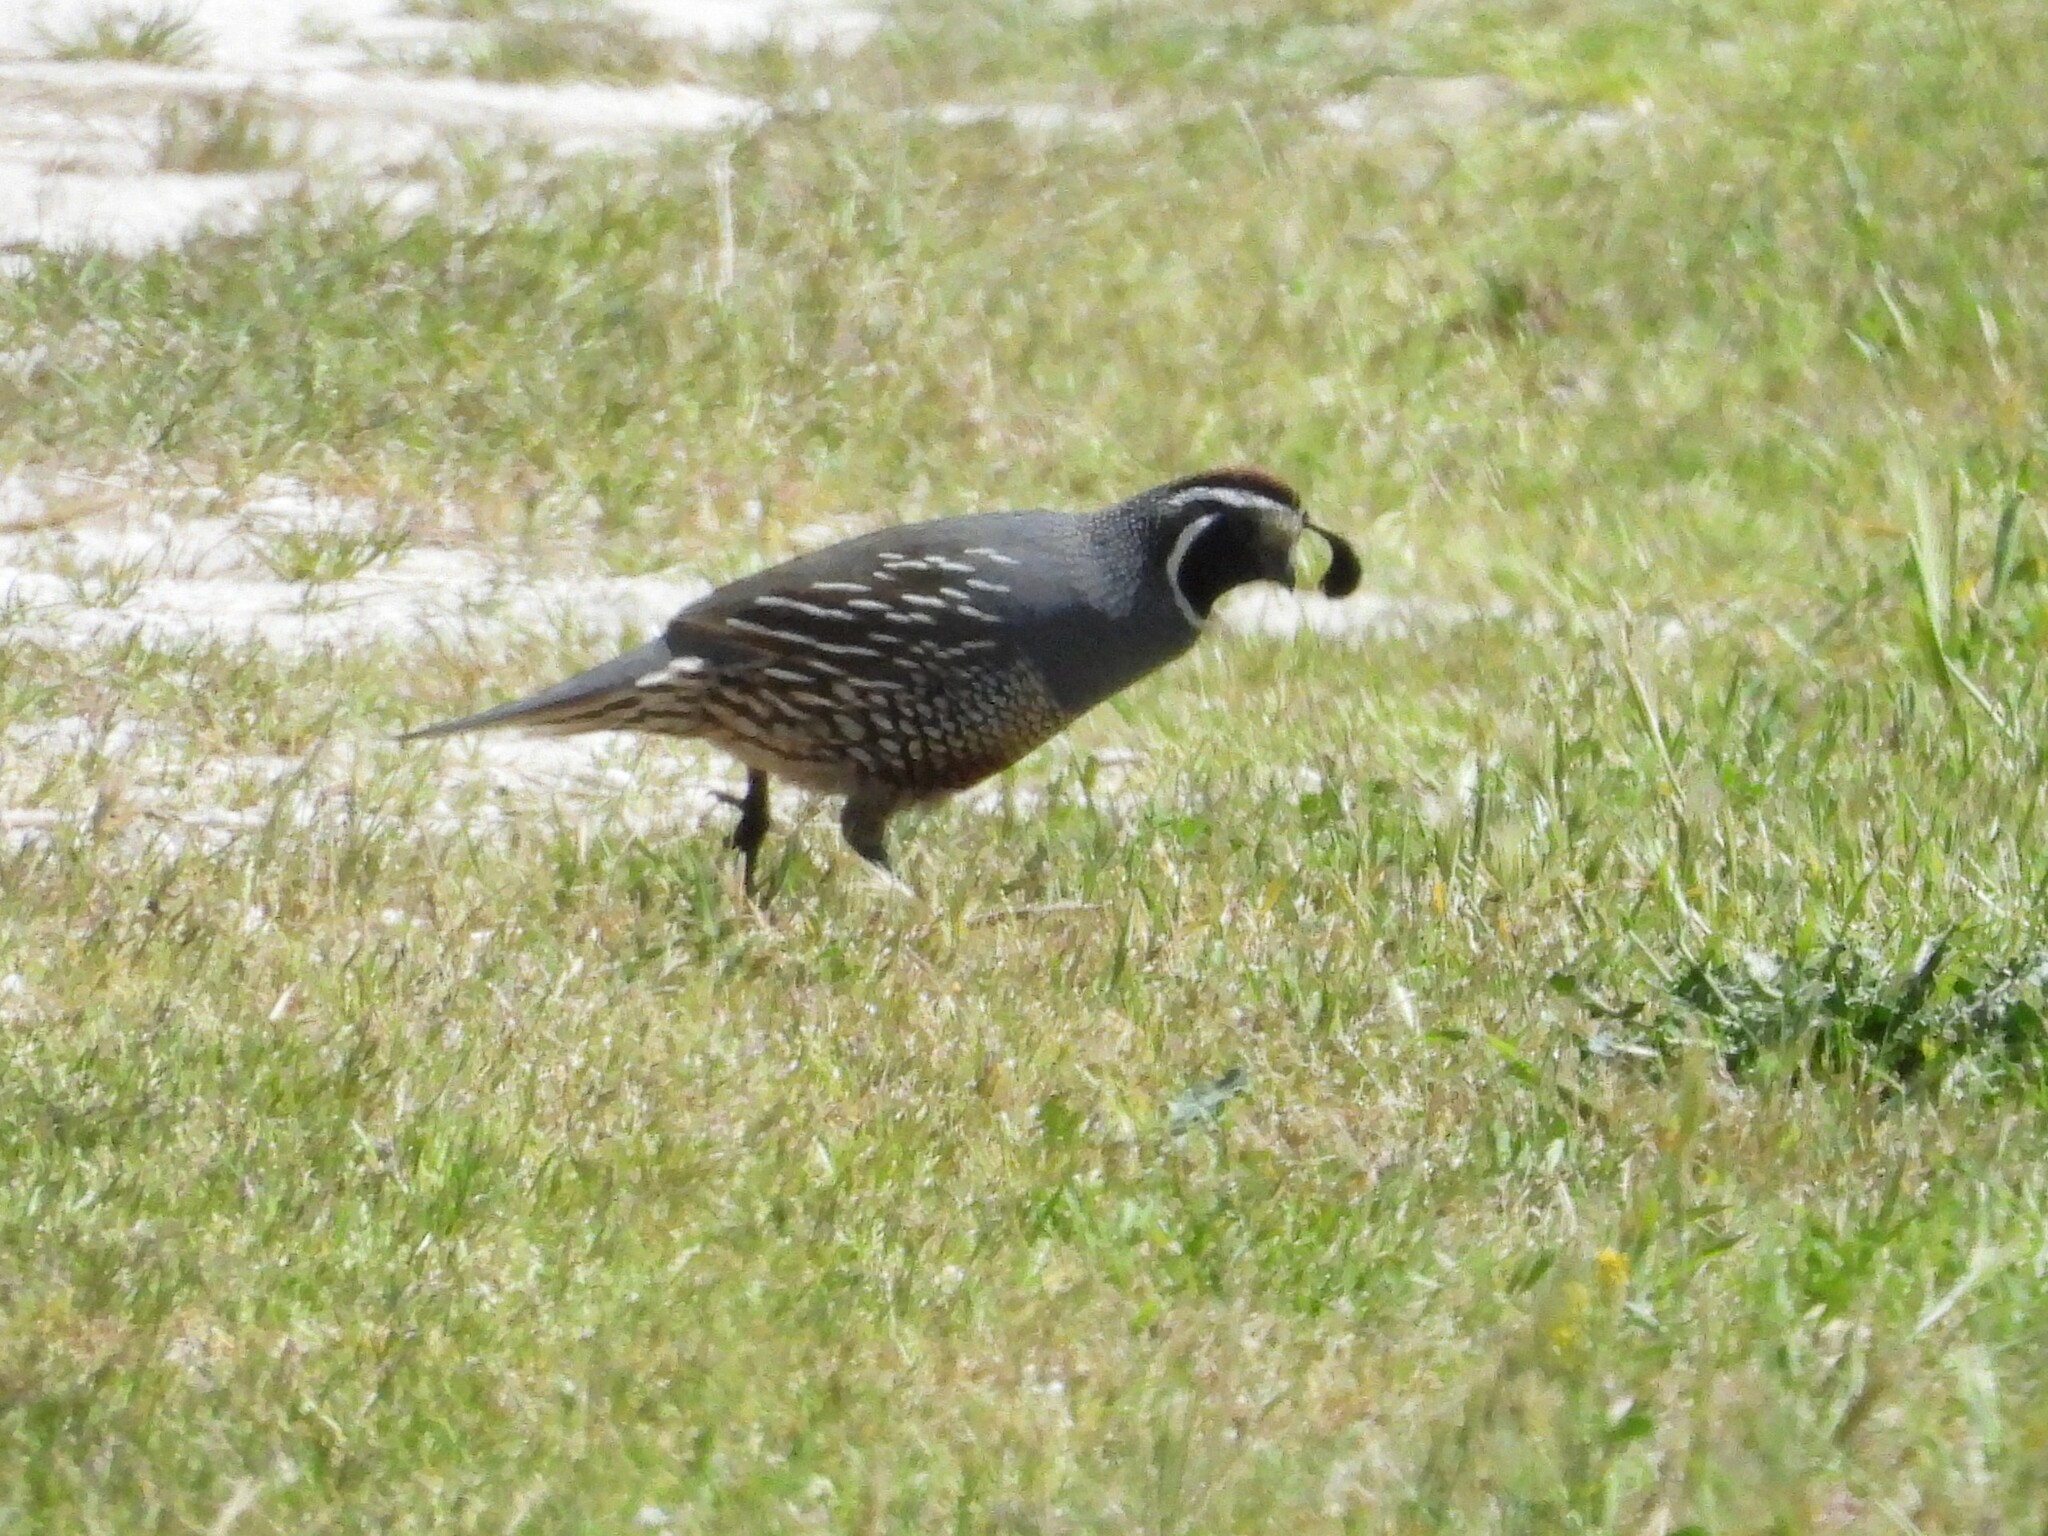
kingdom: Animalia
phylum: Chordata
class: Aves
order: Galliformes
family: Odontophoridae
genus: Callipepla
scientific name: Callipepla californica
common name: California quail
